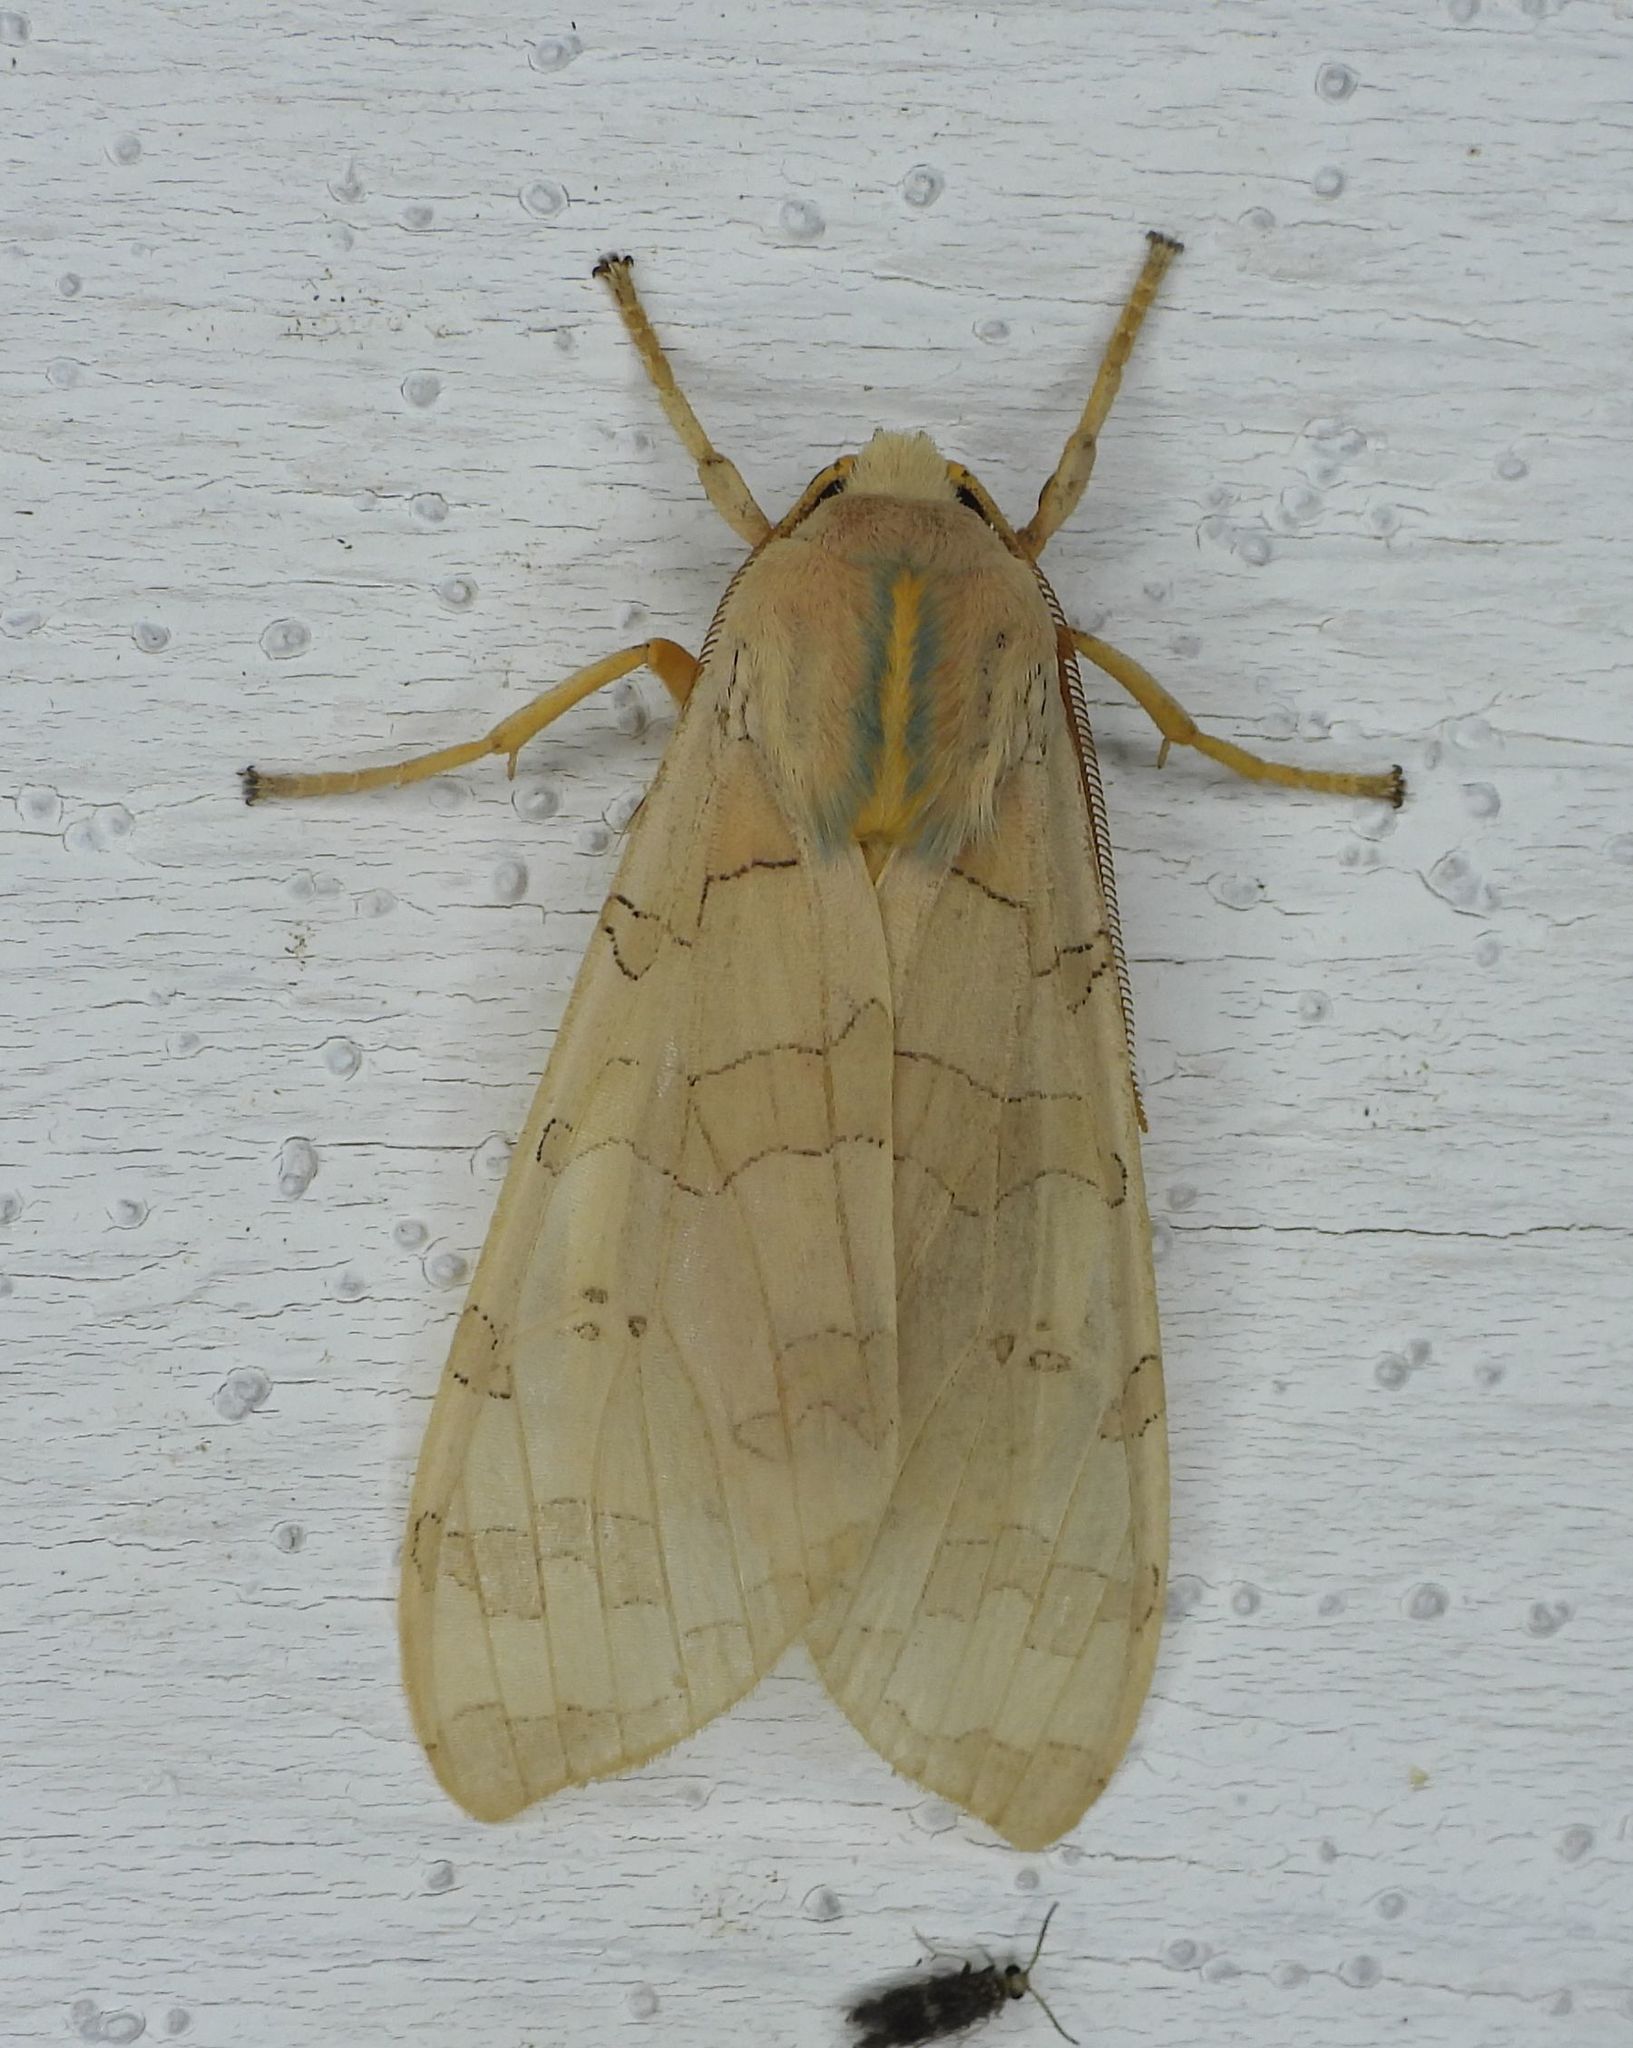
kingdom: Animalia
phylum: Arthropoda
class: Insecta
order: Lepidoptera
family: Erebidae
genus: Halysidota
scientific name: Halysidota tessellaris
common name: Banded tussock moth
